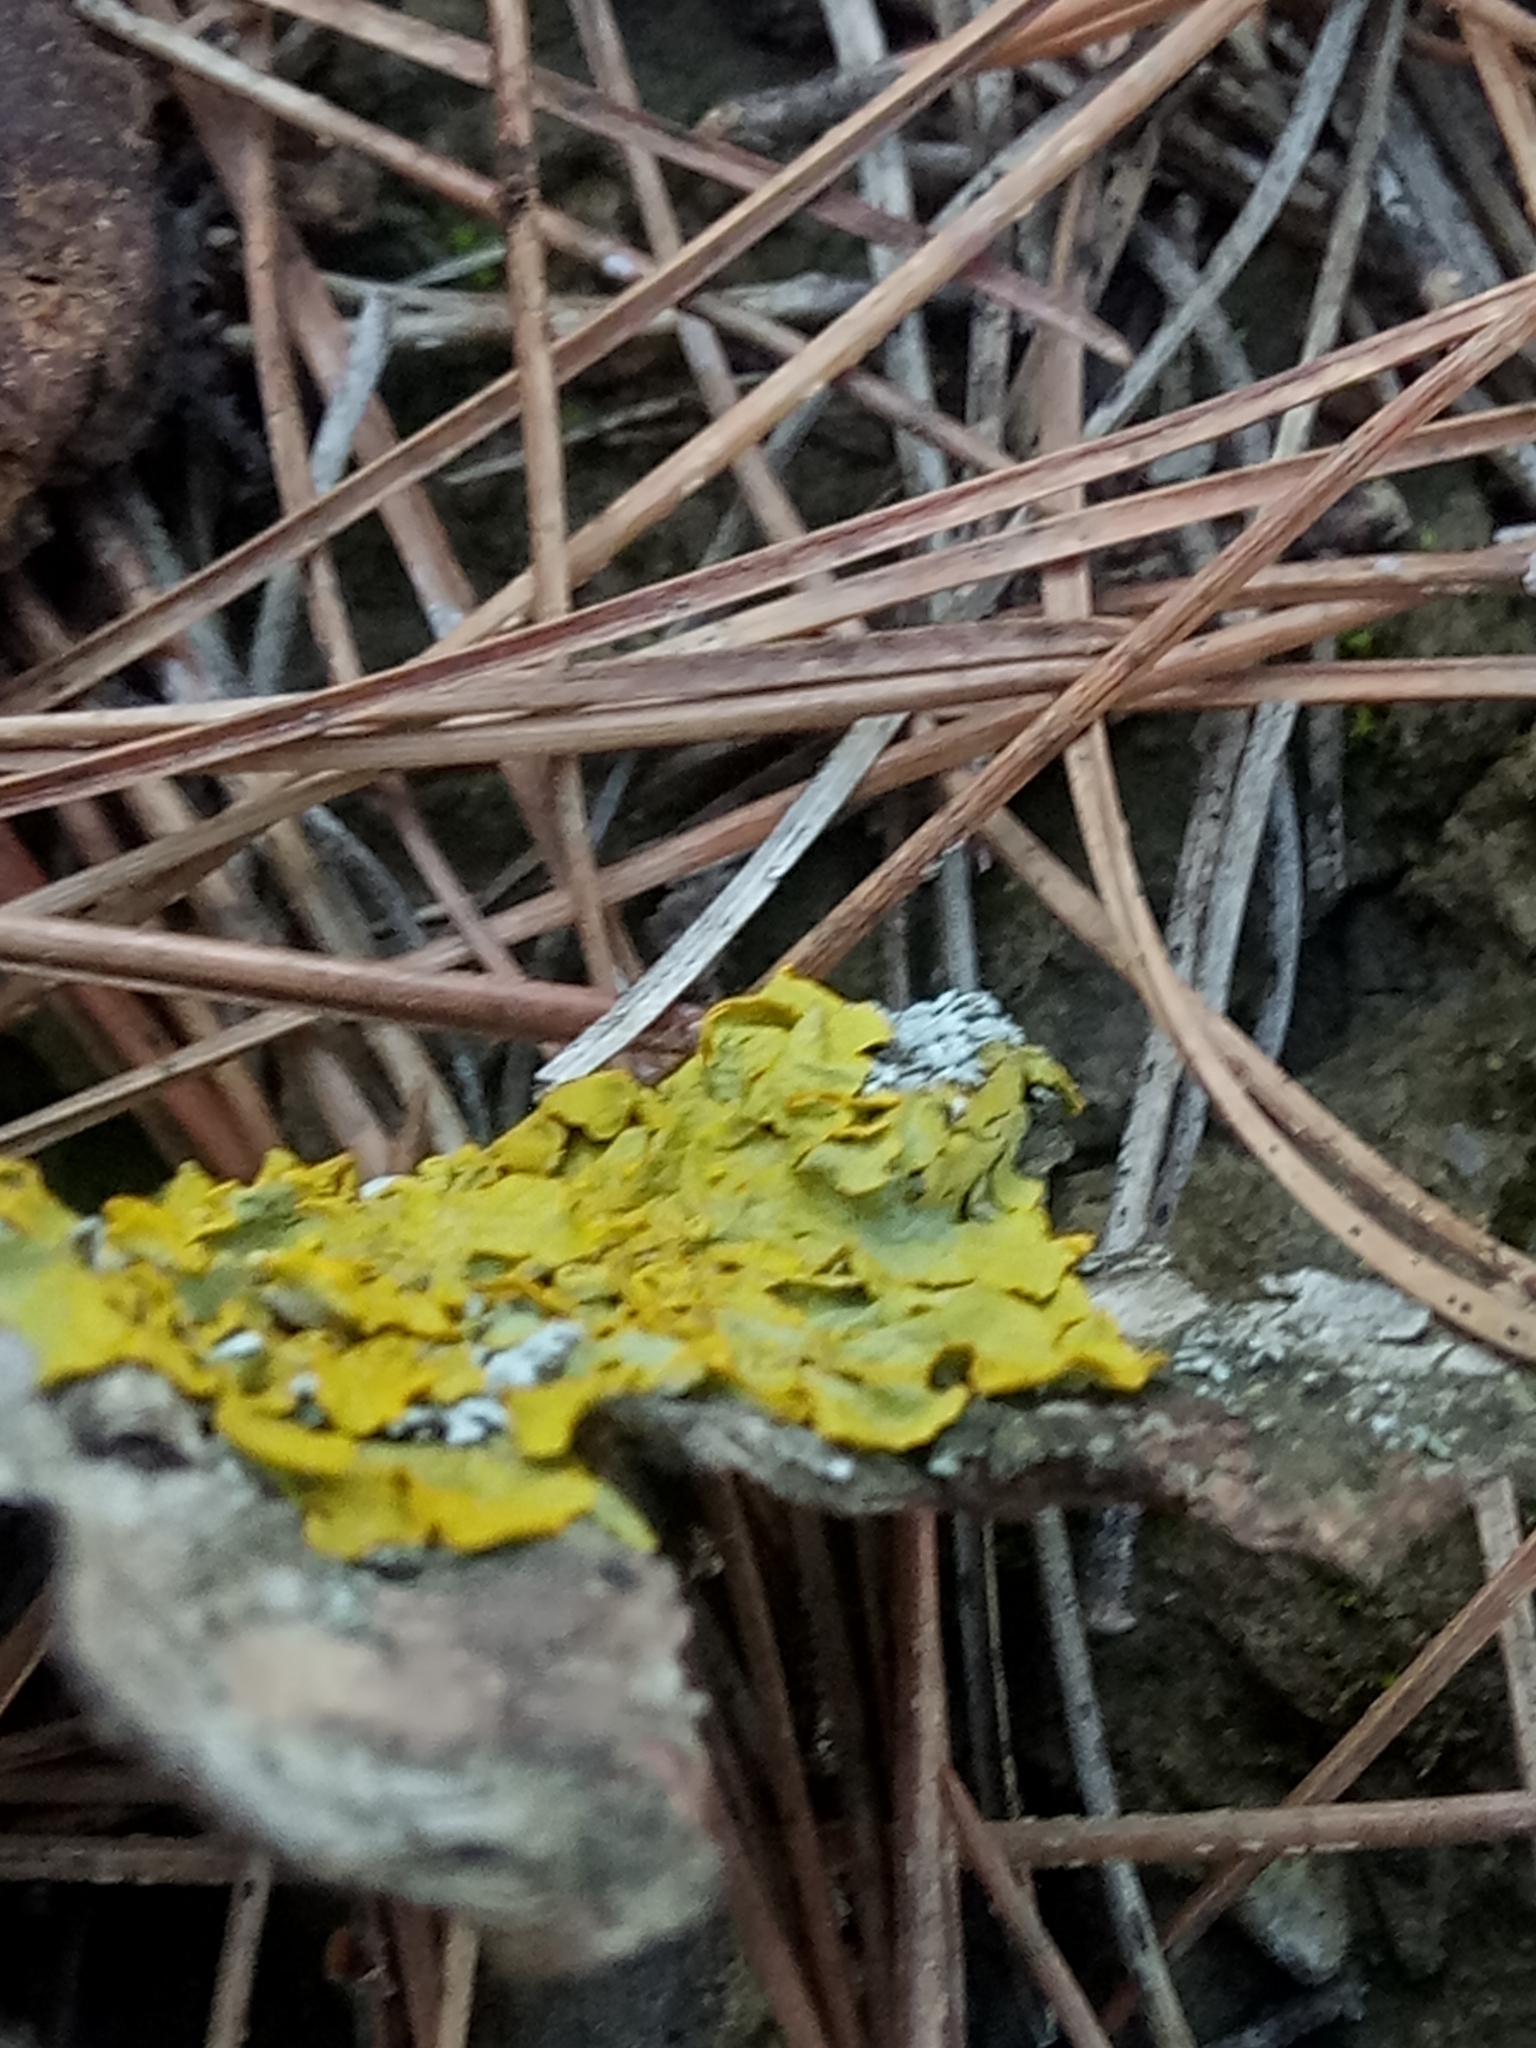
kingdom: Fungi
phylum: Ascomycota
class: Lecanoromycetes
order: Teloschistales
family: Teloschistaceae
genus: Xanthoria
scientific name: Xanthoria parietina
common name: Common orange lichen
